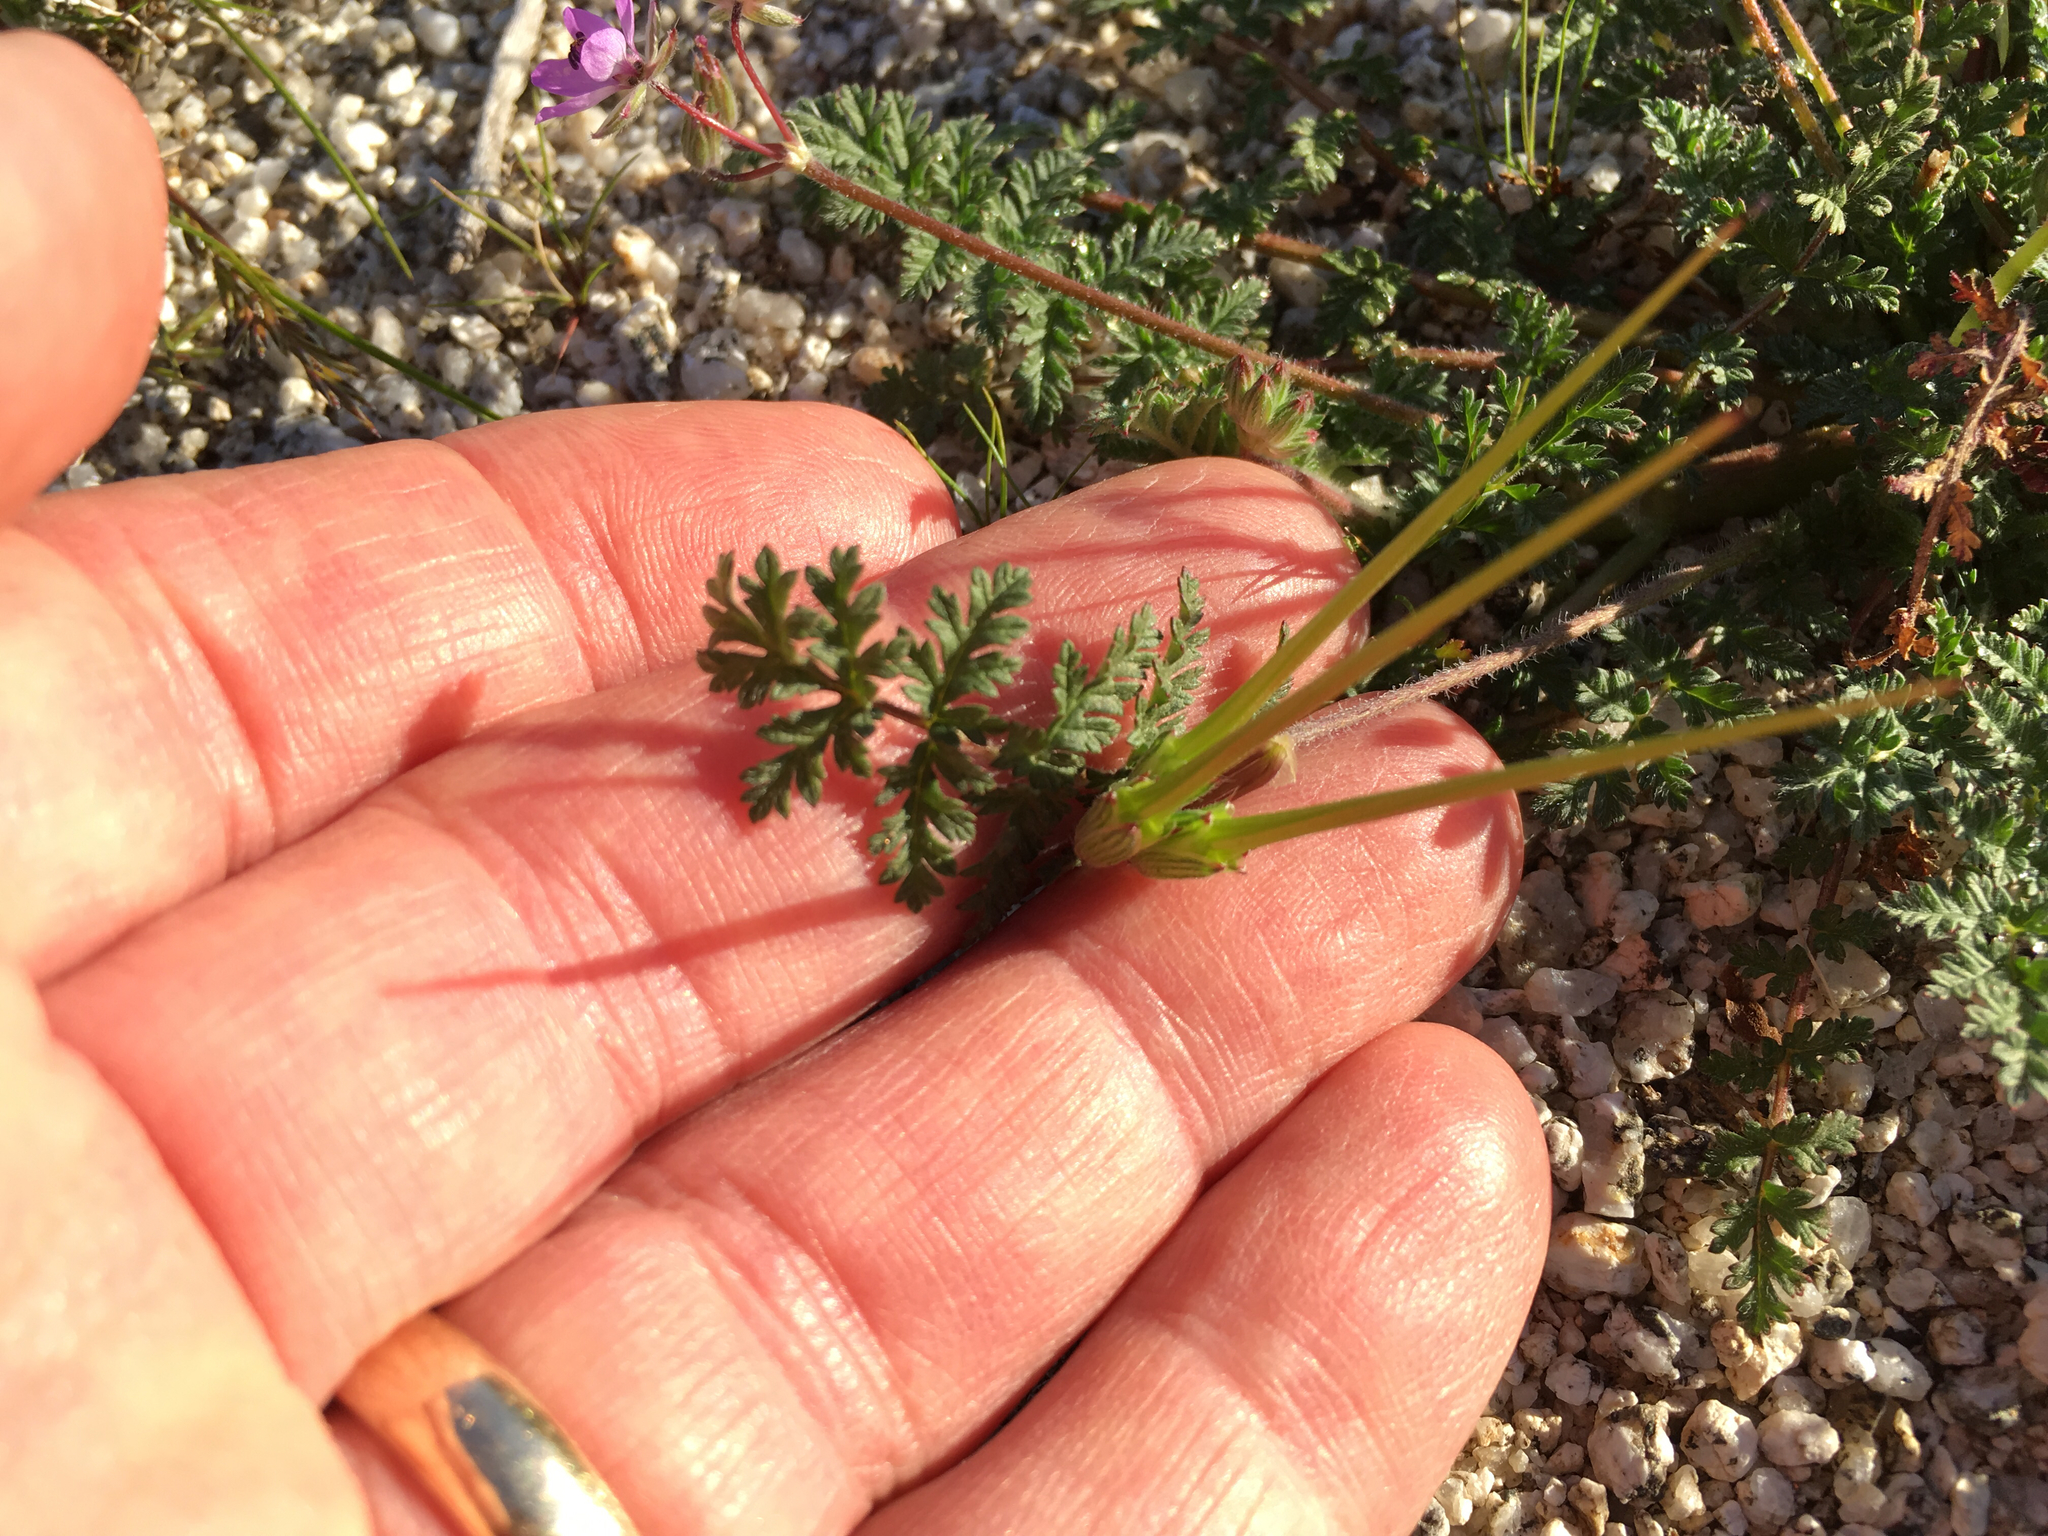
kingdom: Plantae
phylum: Tracheophyta
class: Magnoliopsida
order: Geraniales
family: Geraniaceae
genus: Erodium
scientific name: Erodium cicutarium
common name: Common stork's-bill
